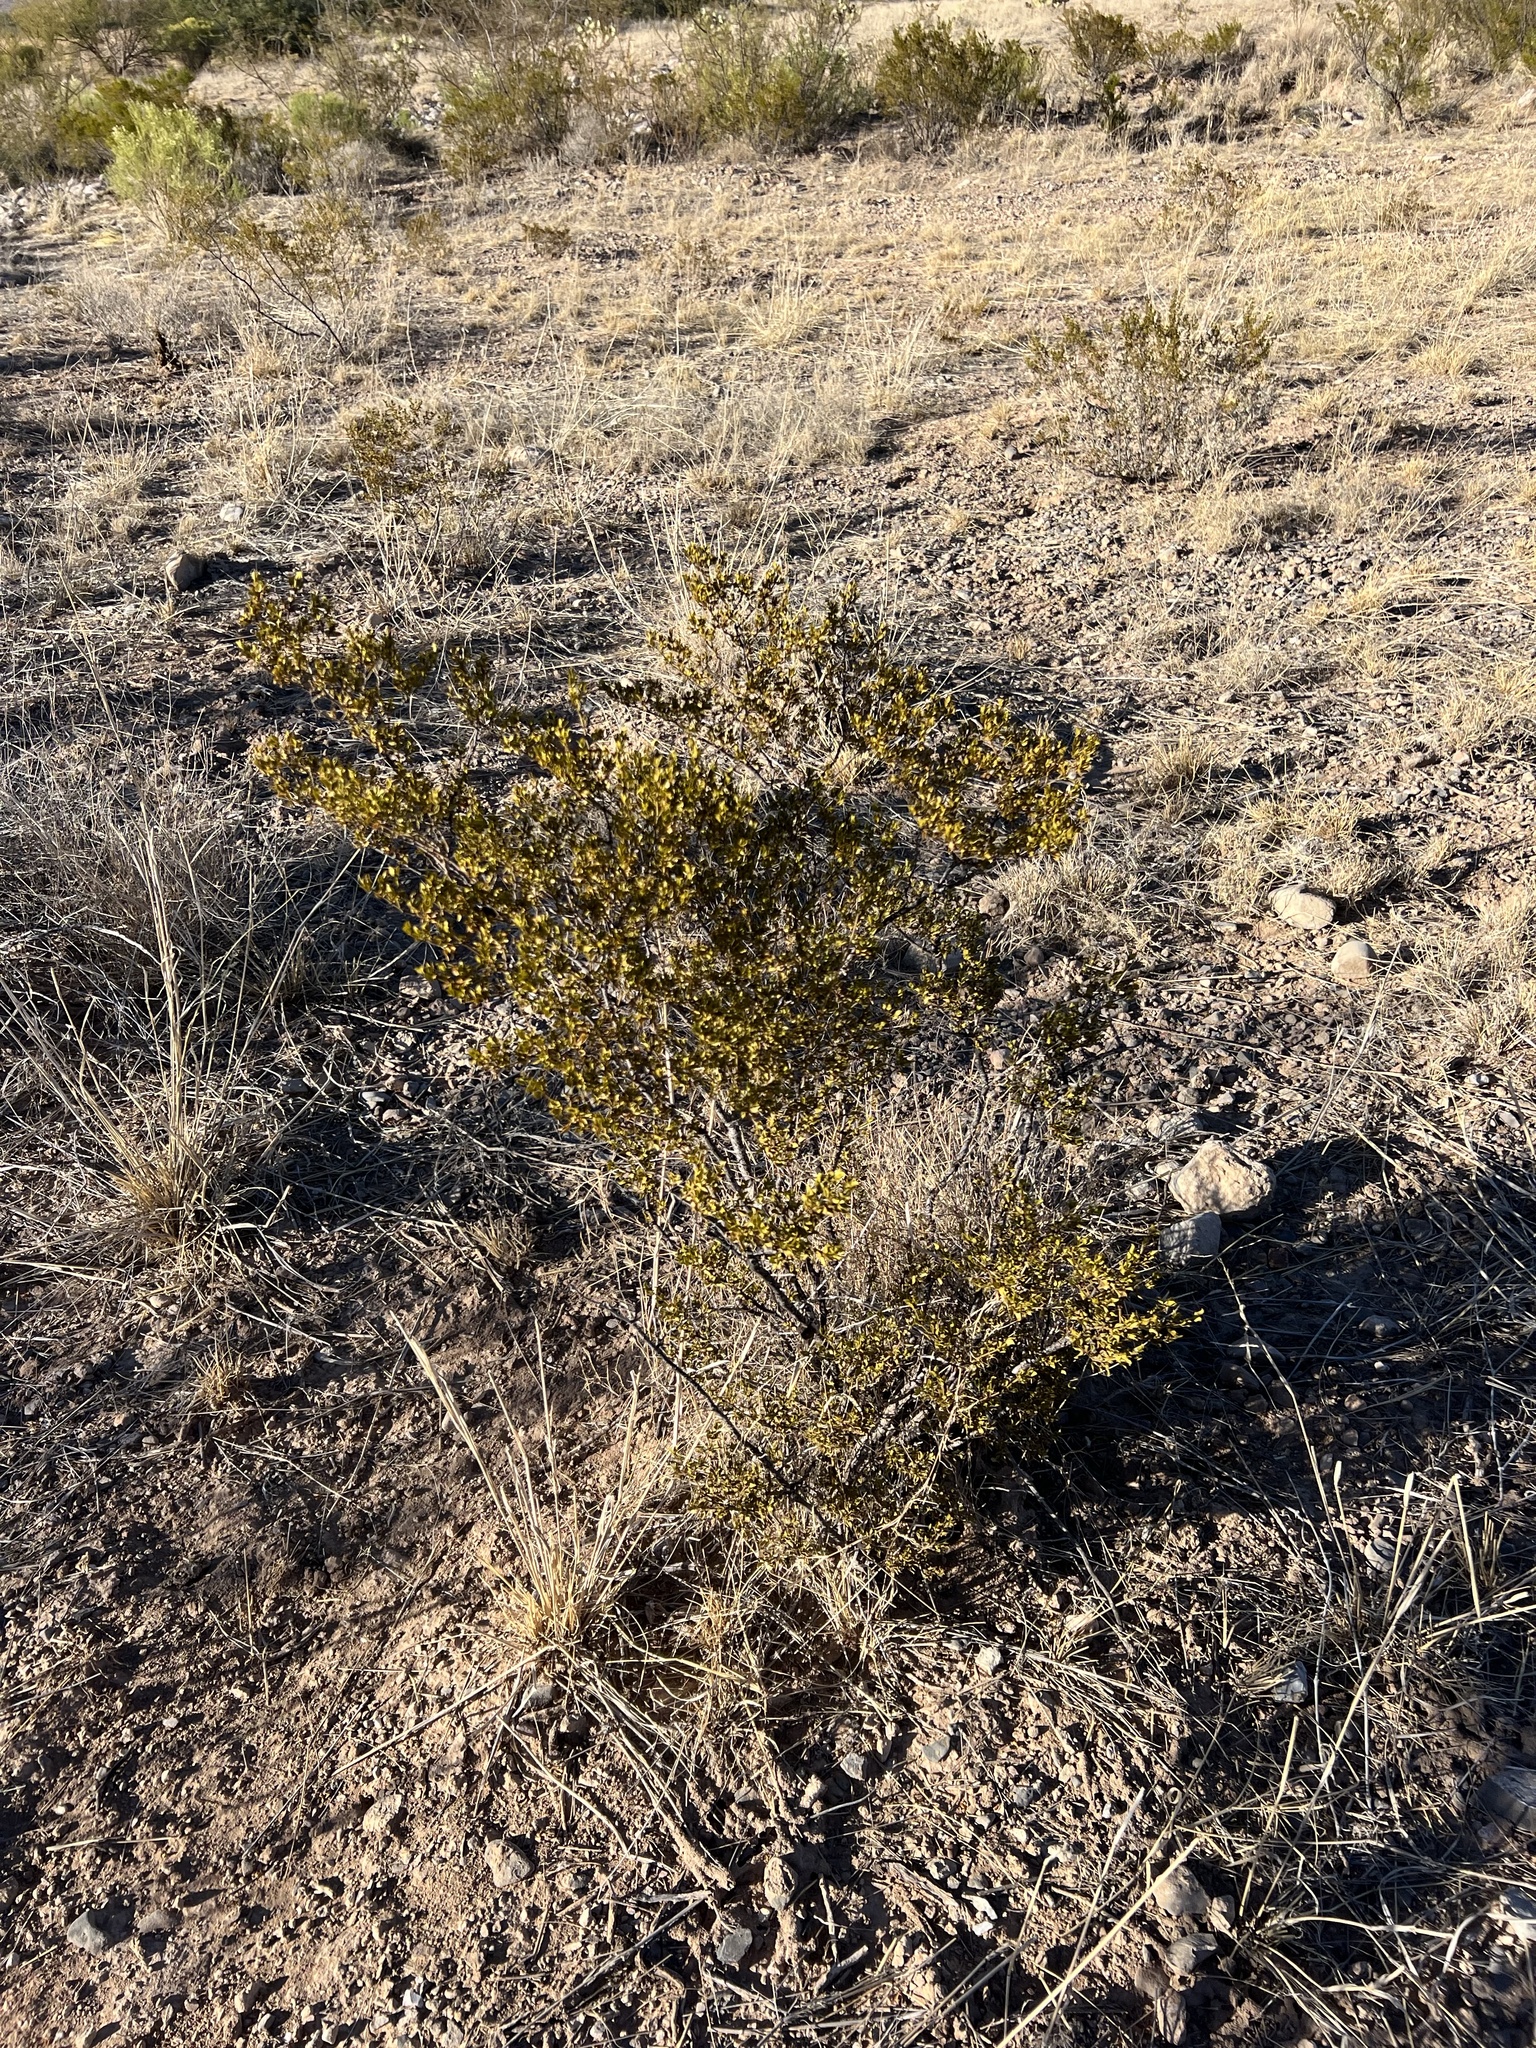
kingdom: Plantae
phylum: Tracheophyta
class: Magnoliopsida
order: Zygophyllales
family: Zygophyllaceae
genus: Larrea
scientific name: Larrea tridentata
